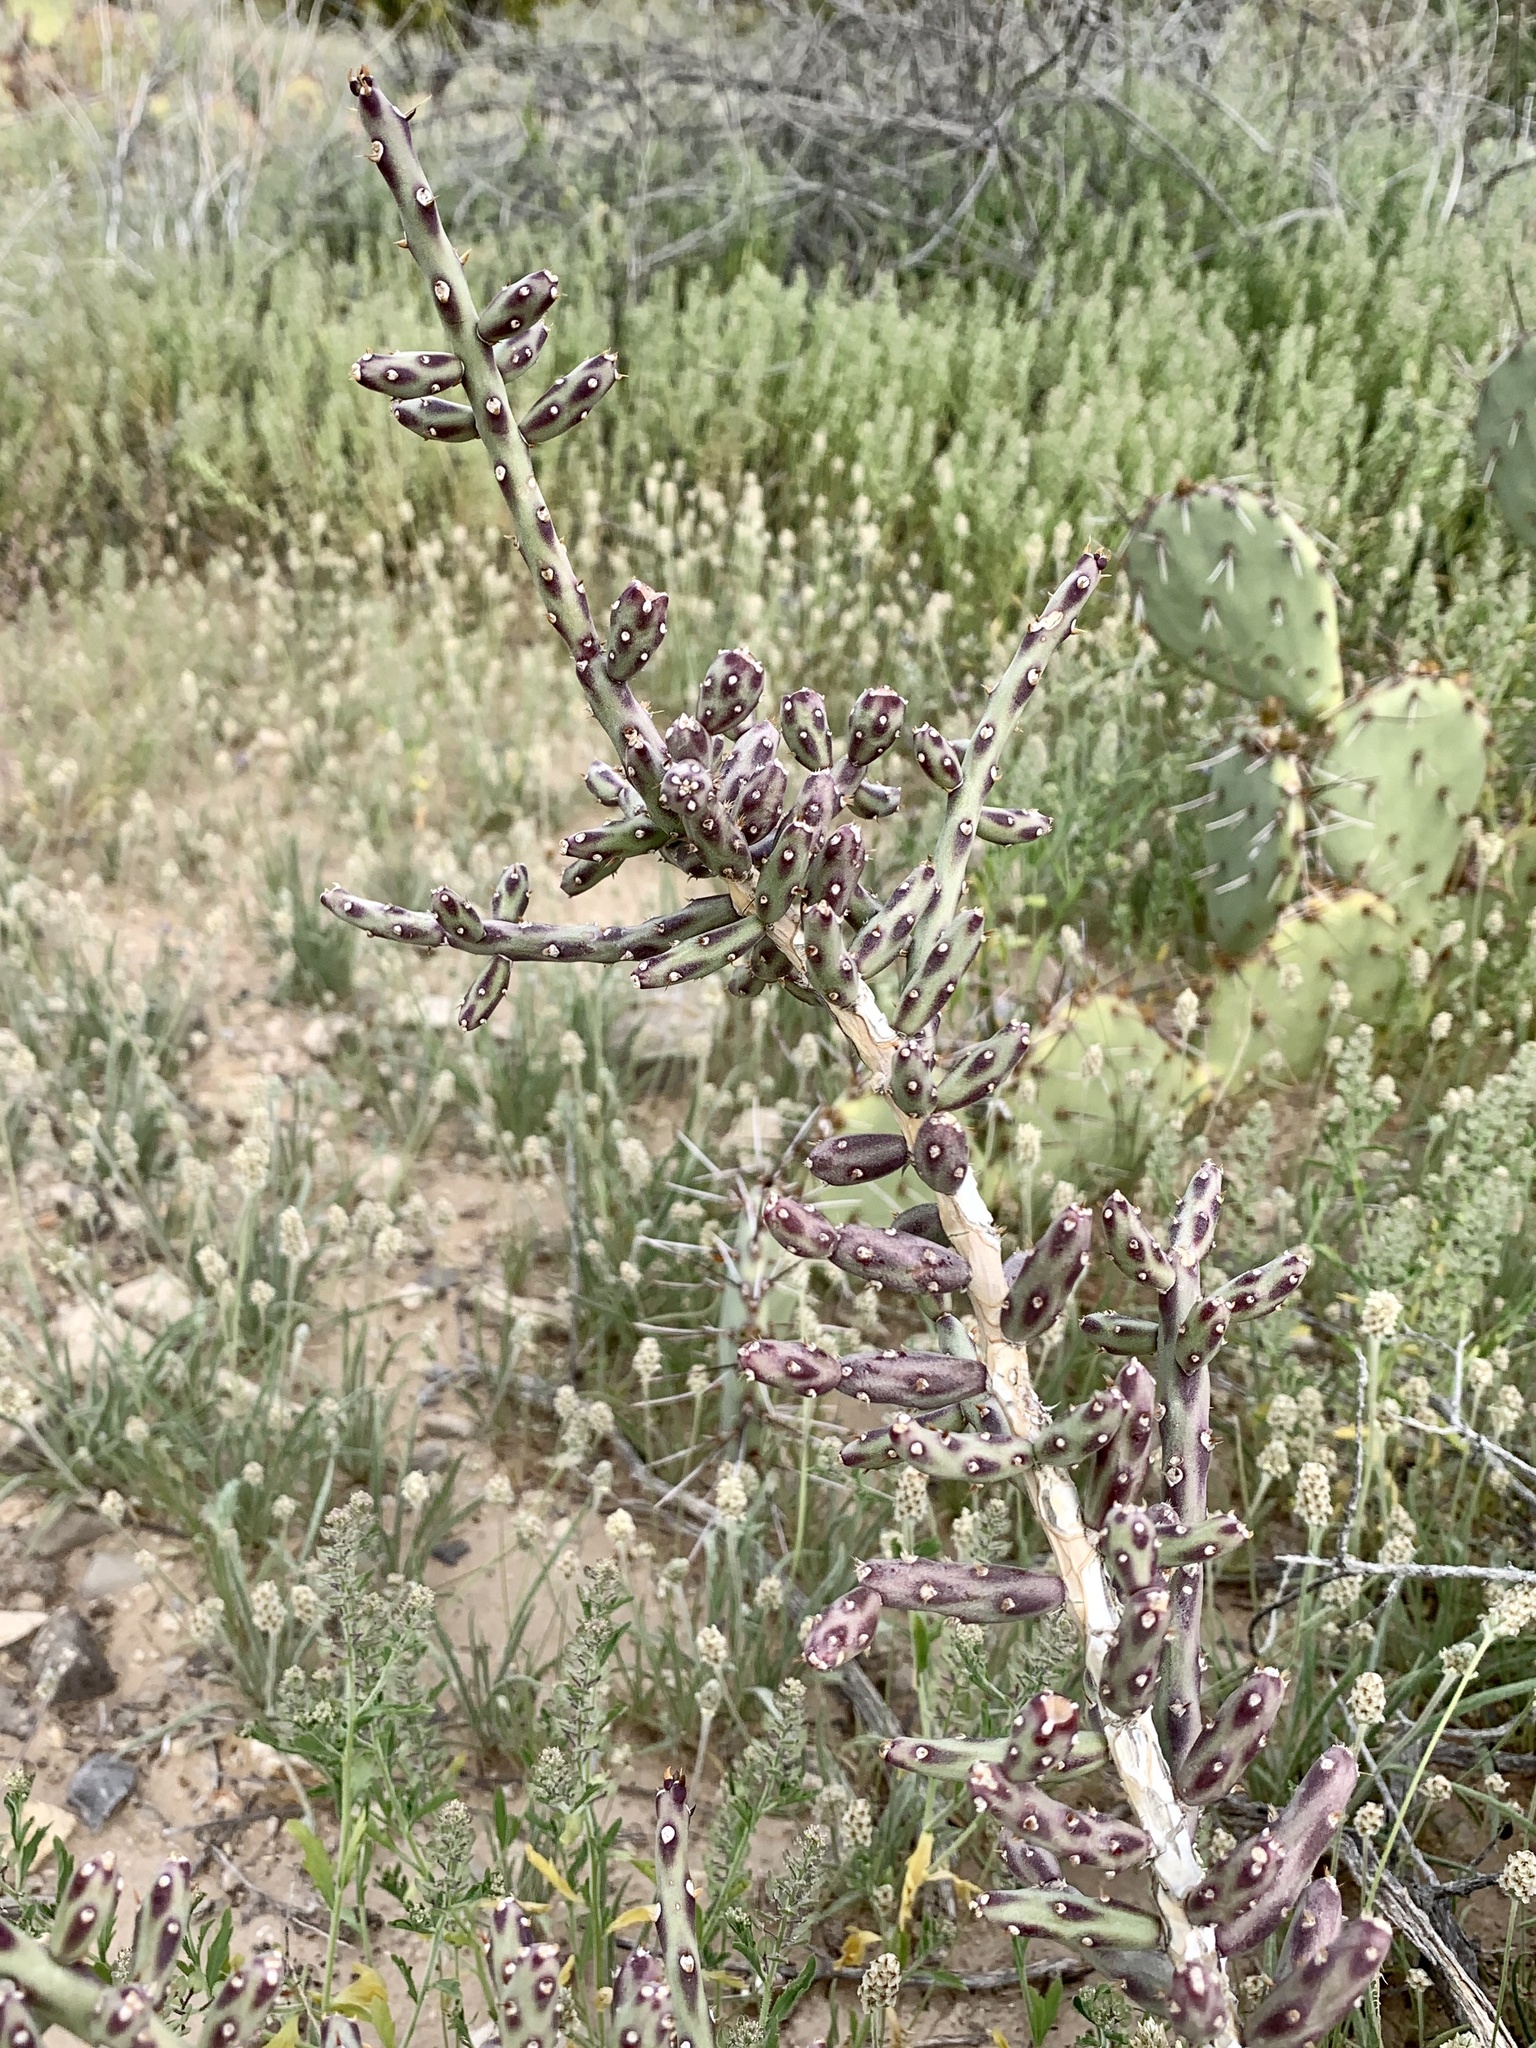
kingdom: Plantae
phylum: Tracheophyta
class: Magnoliopsida
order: Caryophyllales
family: Cactaceae
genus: Cylindropuntia
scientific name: Cylindropuntia leptocaulis
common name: Christmas cactus
